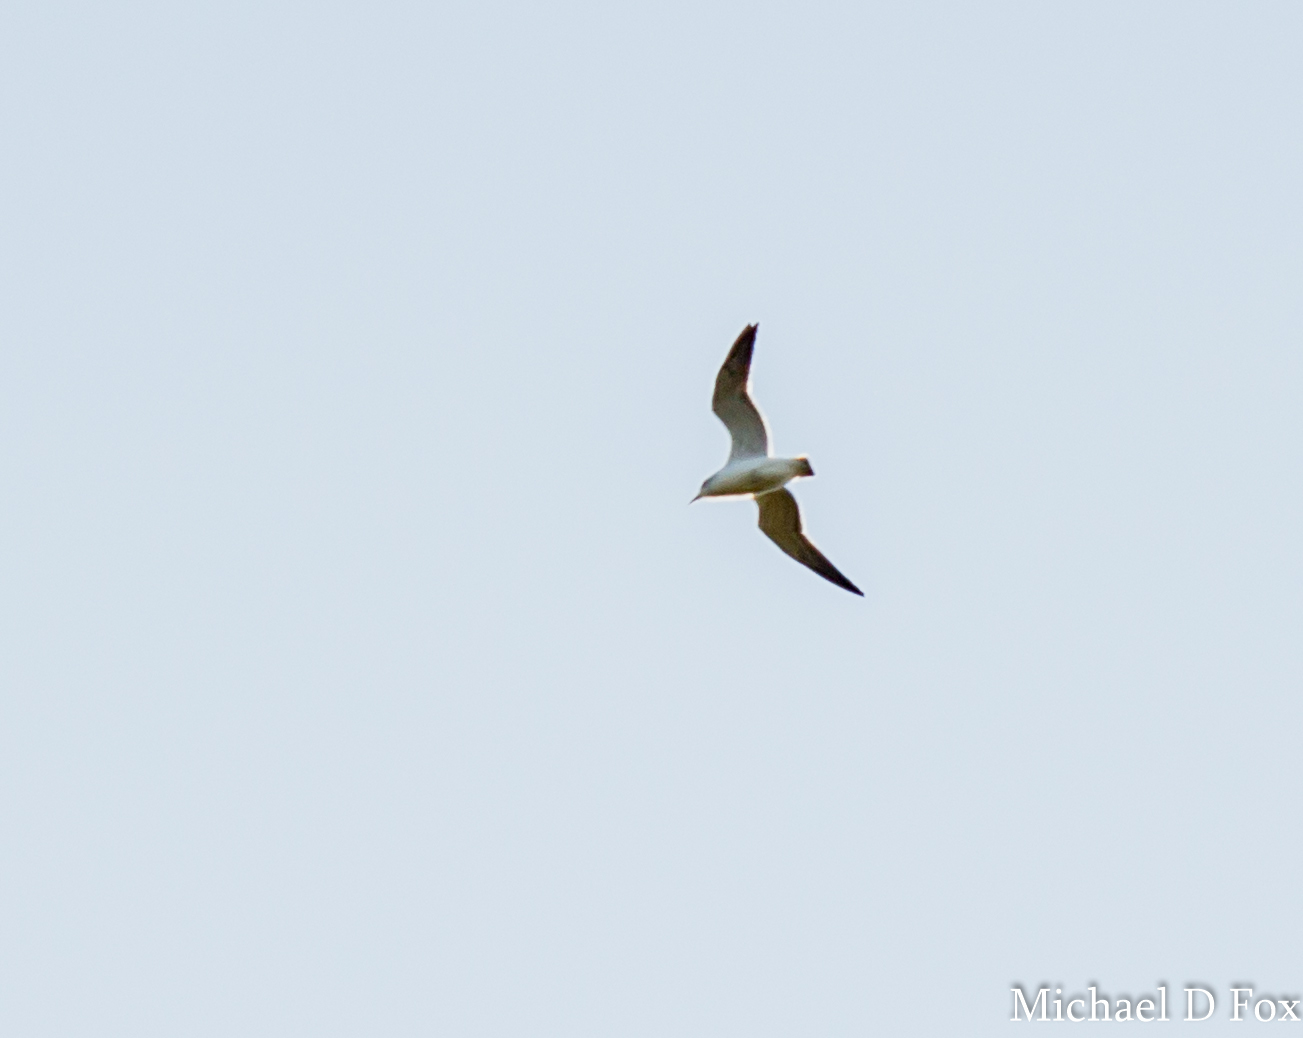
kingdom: Animalia
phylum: Chordata
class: Aves
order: Charadriiformes
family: Laridae
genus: Leucophaeus
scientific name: Leucophaeus pipixcan
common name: Franklin's gull
